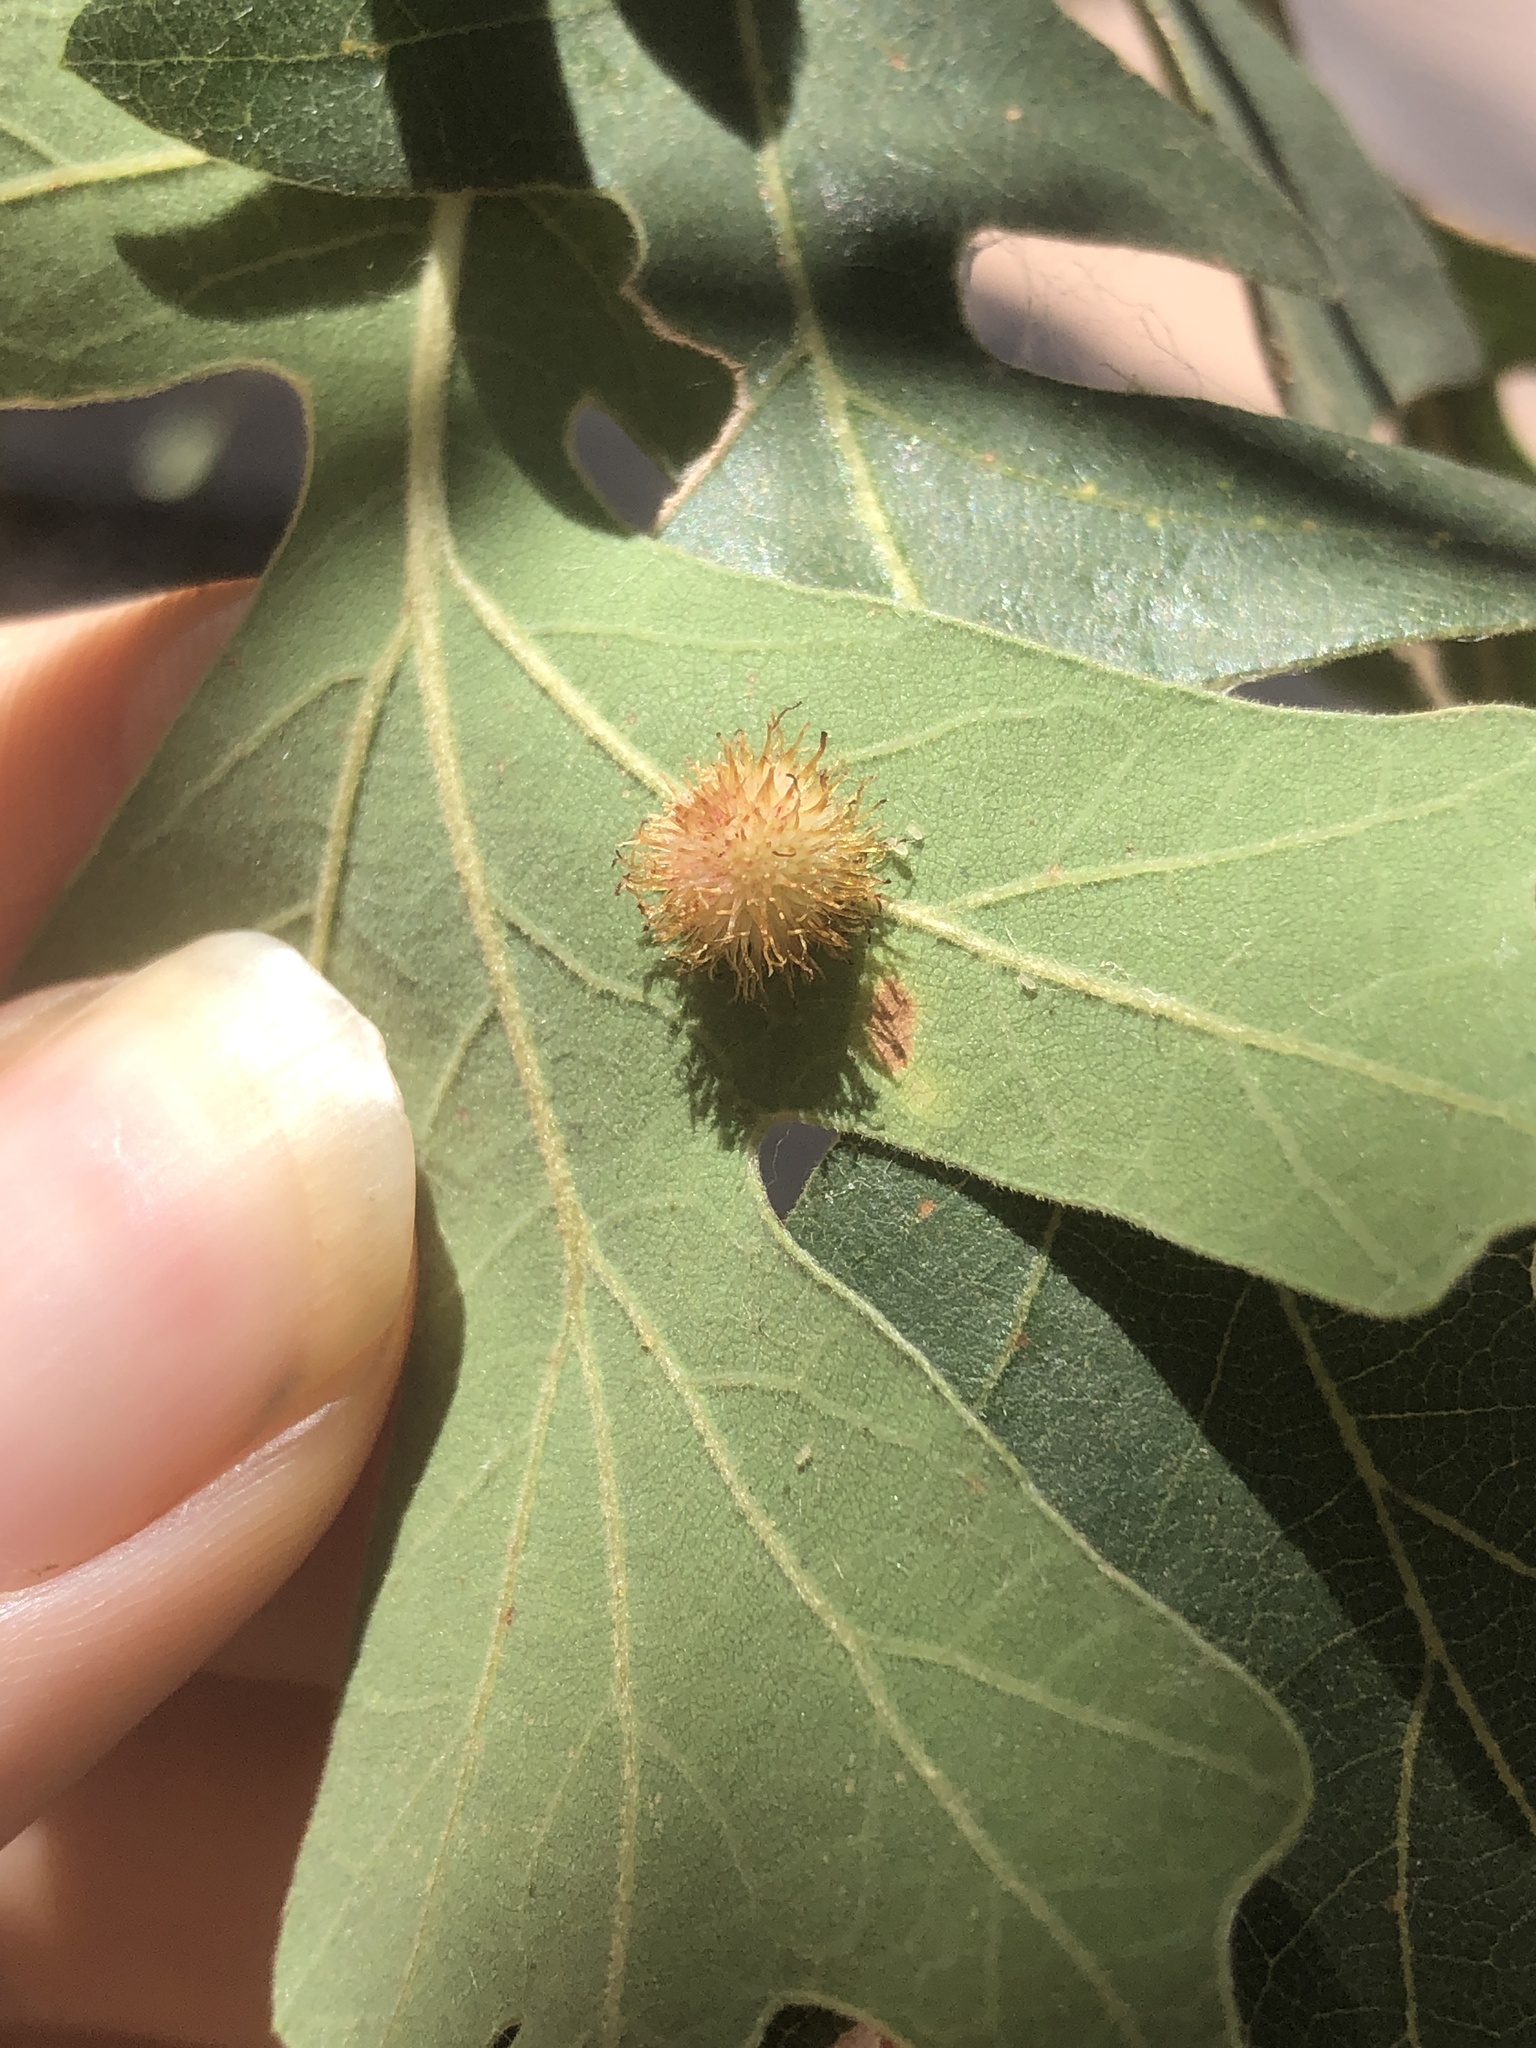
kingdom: Animalia
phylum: Arthropoda
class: Insecta
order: Hymenoptera
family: Cynipidae
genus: Acraspis
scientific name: Acraspis
